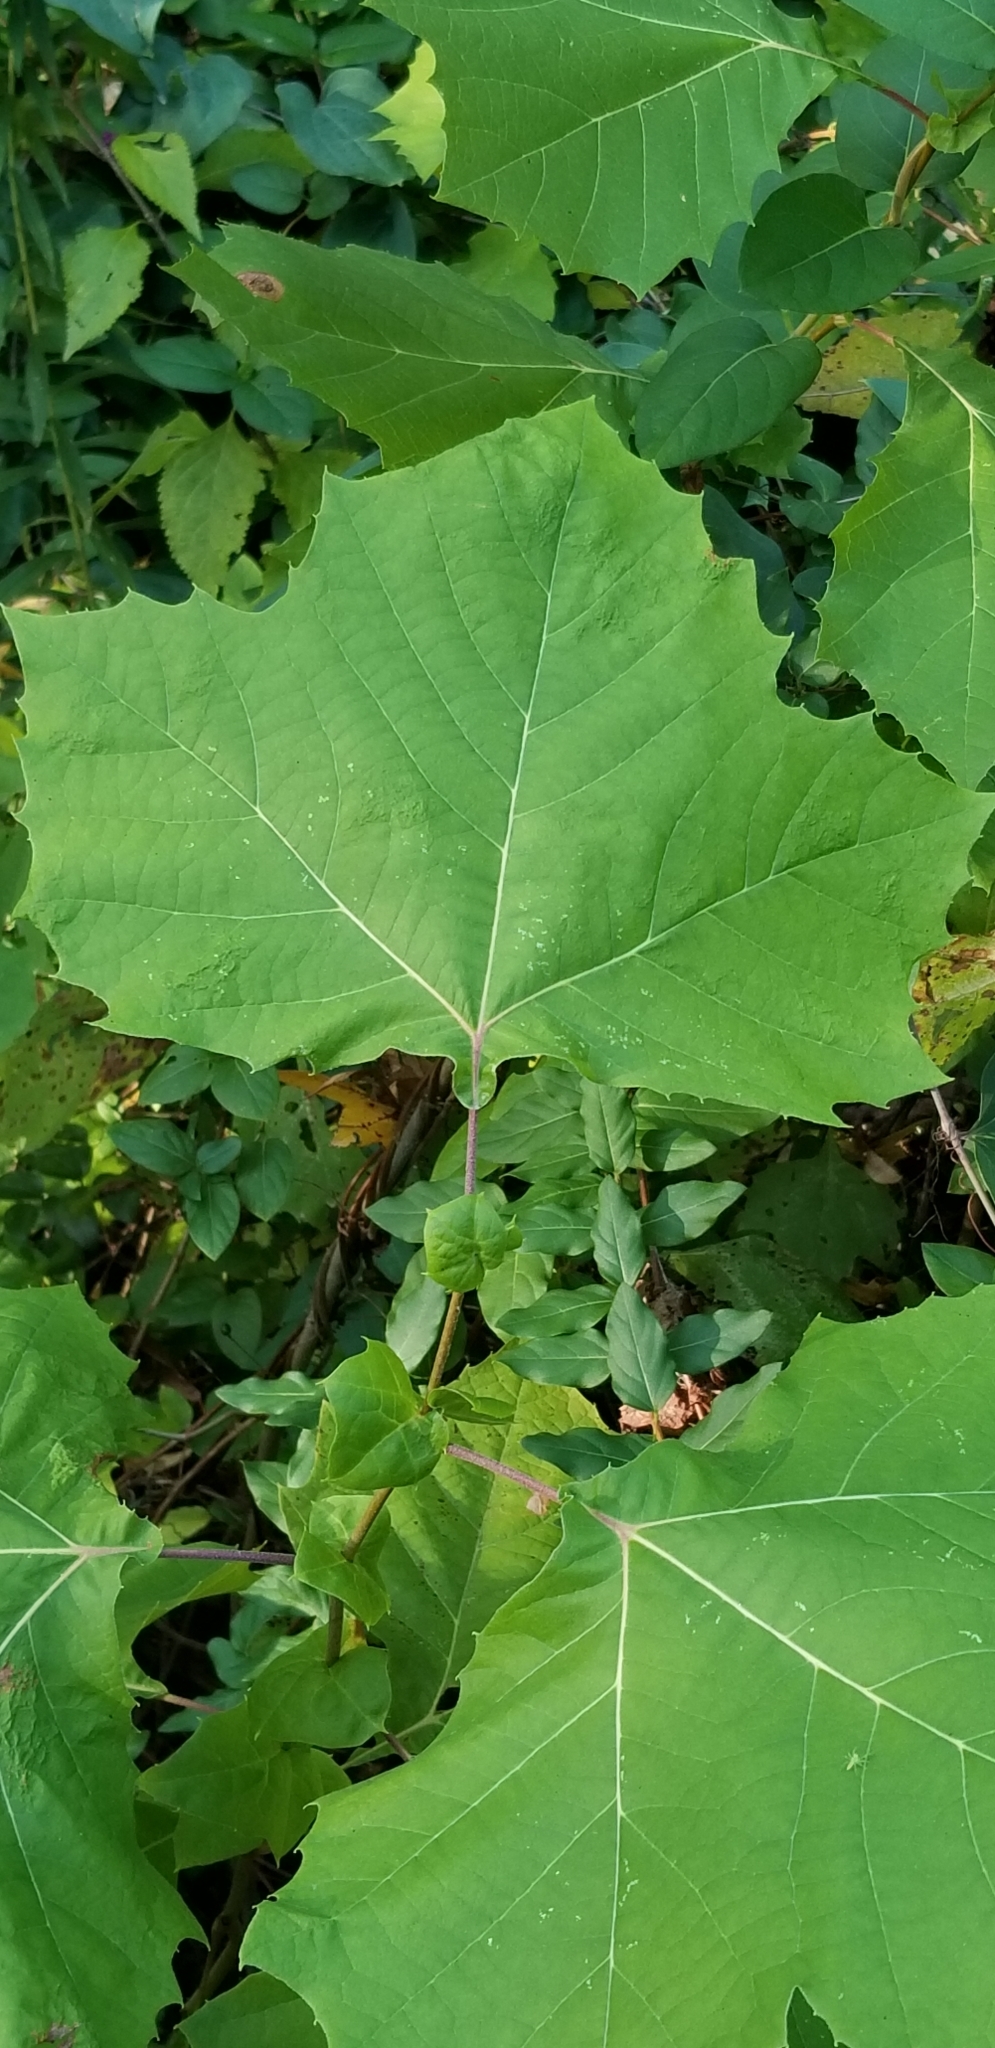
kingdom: Plantae
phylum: Tracheophyta
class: Magnoliopsida
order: Proteales
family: Platanaceae
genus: Platanus
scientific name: Platanus occidentalis
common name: American sycamore
